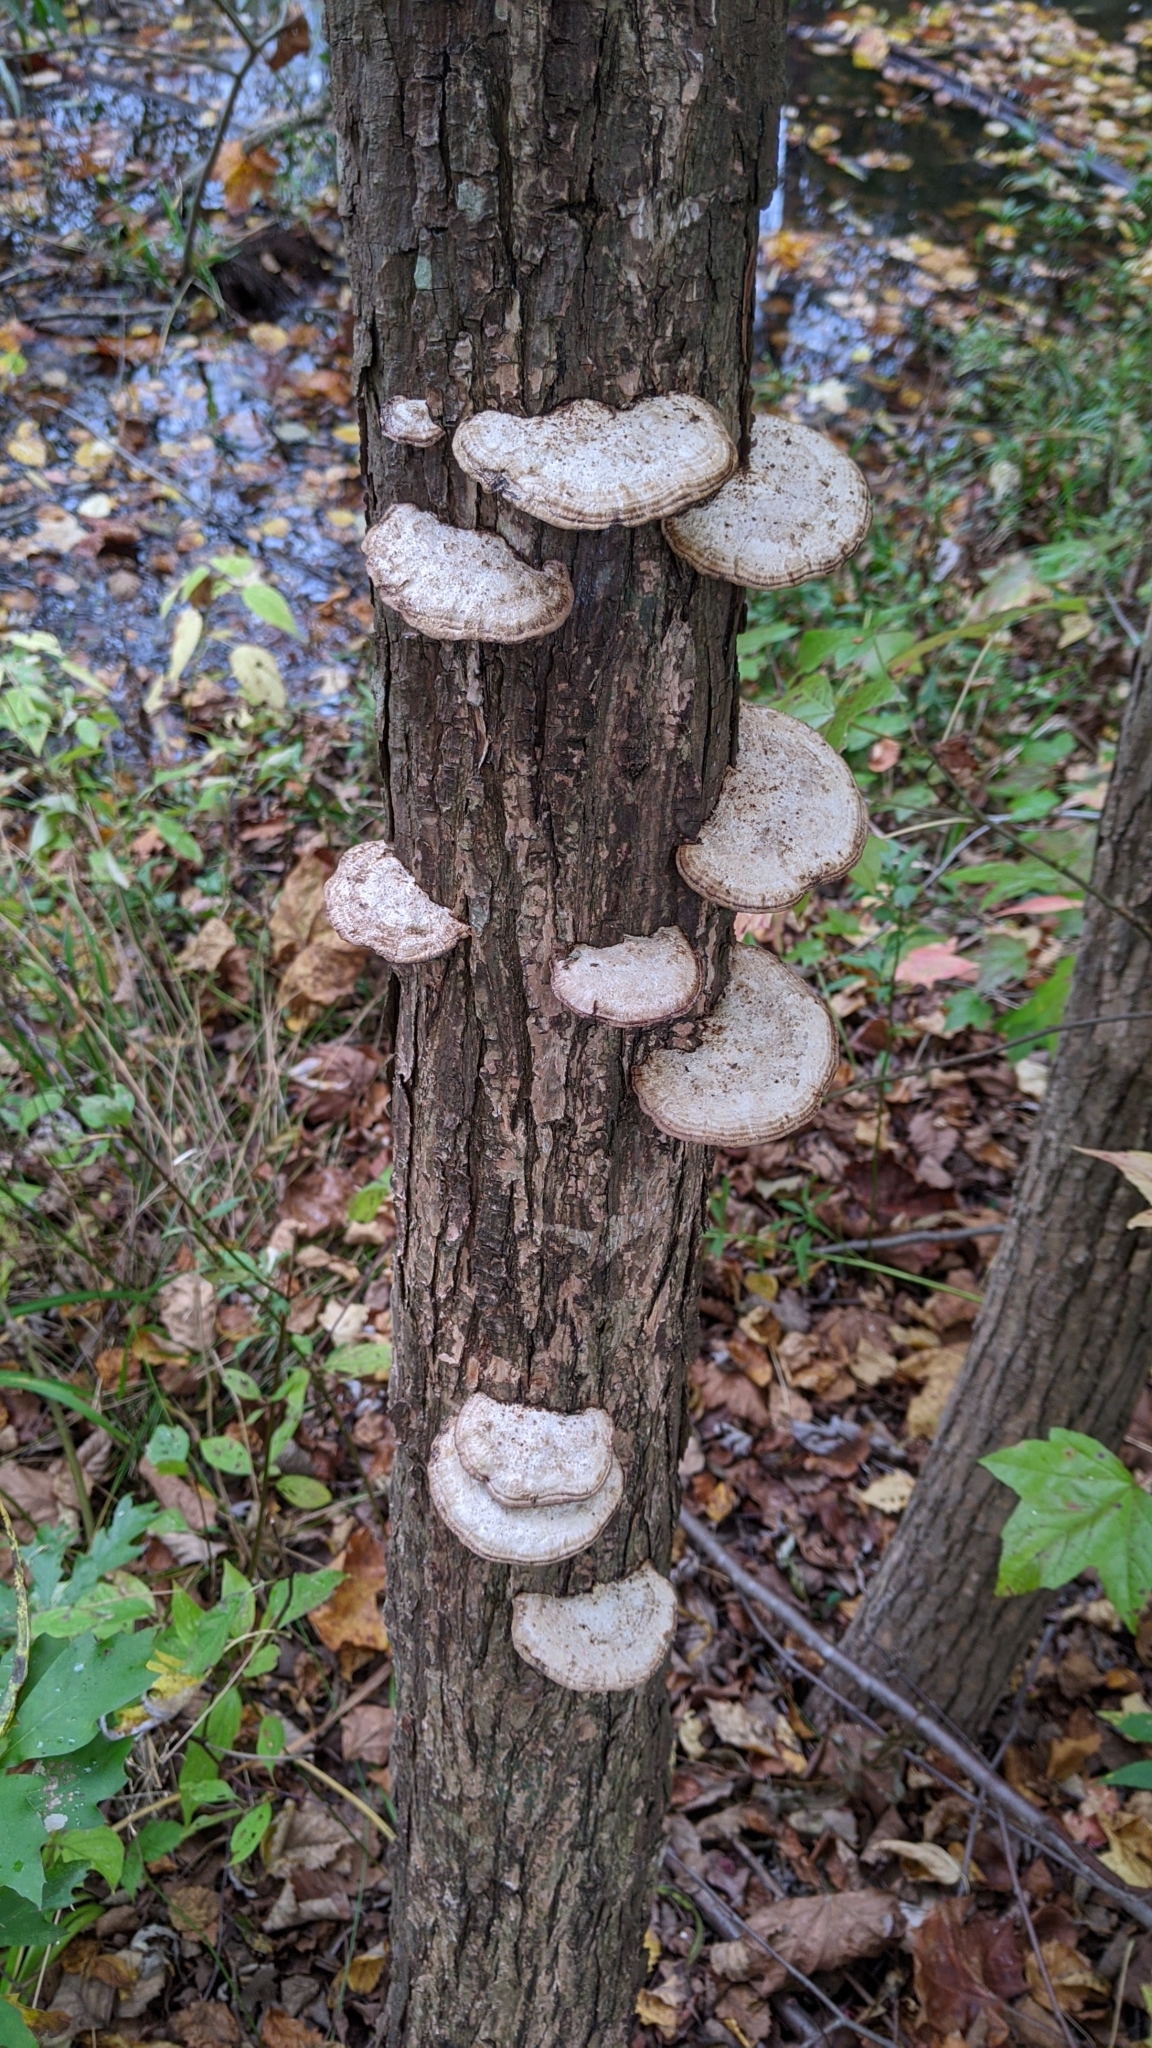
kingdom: Fungi
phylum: Basidiomycota
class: Agaricomycetes
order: Polyporales
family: Polyporaceae
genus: Daedaleopsis
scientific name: Daedaleopsis confragosa
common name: Blushing bracket
